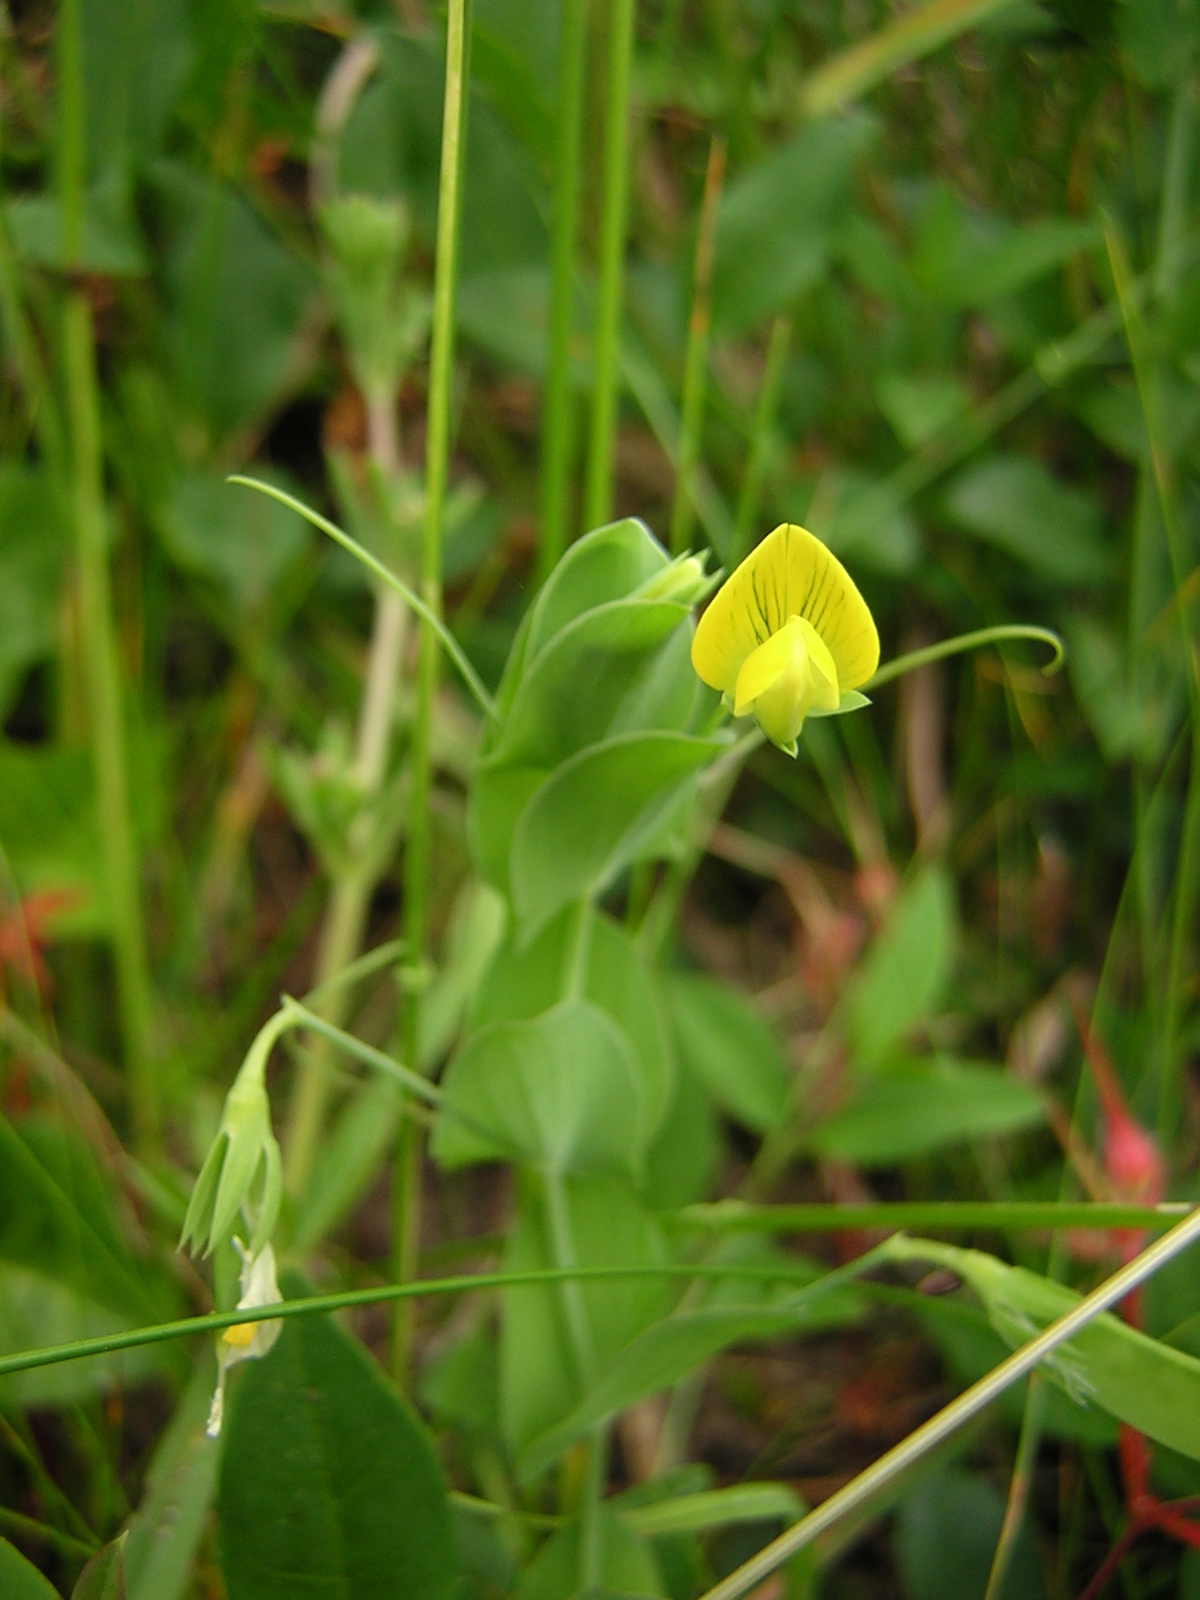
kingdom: Plantae
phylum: Tracheophyta
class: Magnoliopsida
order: Fabales
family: Fabaceae
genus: Lathyrus
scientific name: Lathyrus aphaca
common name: Yellow vetchling
